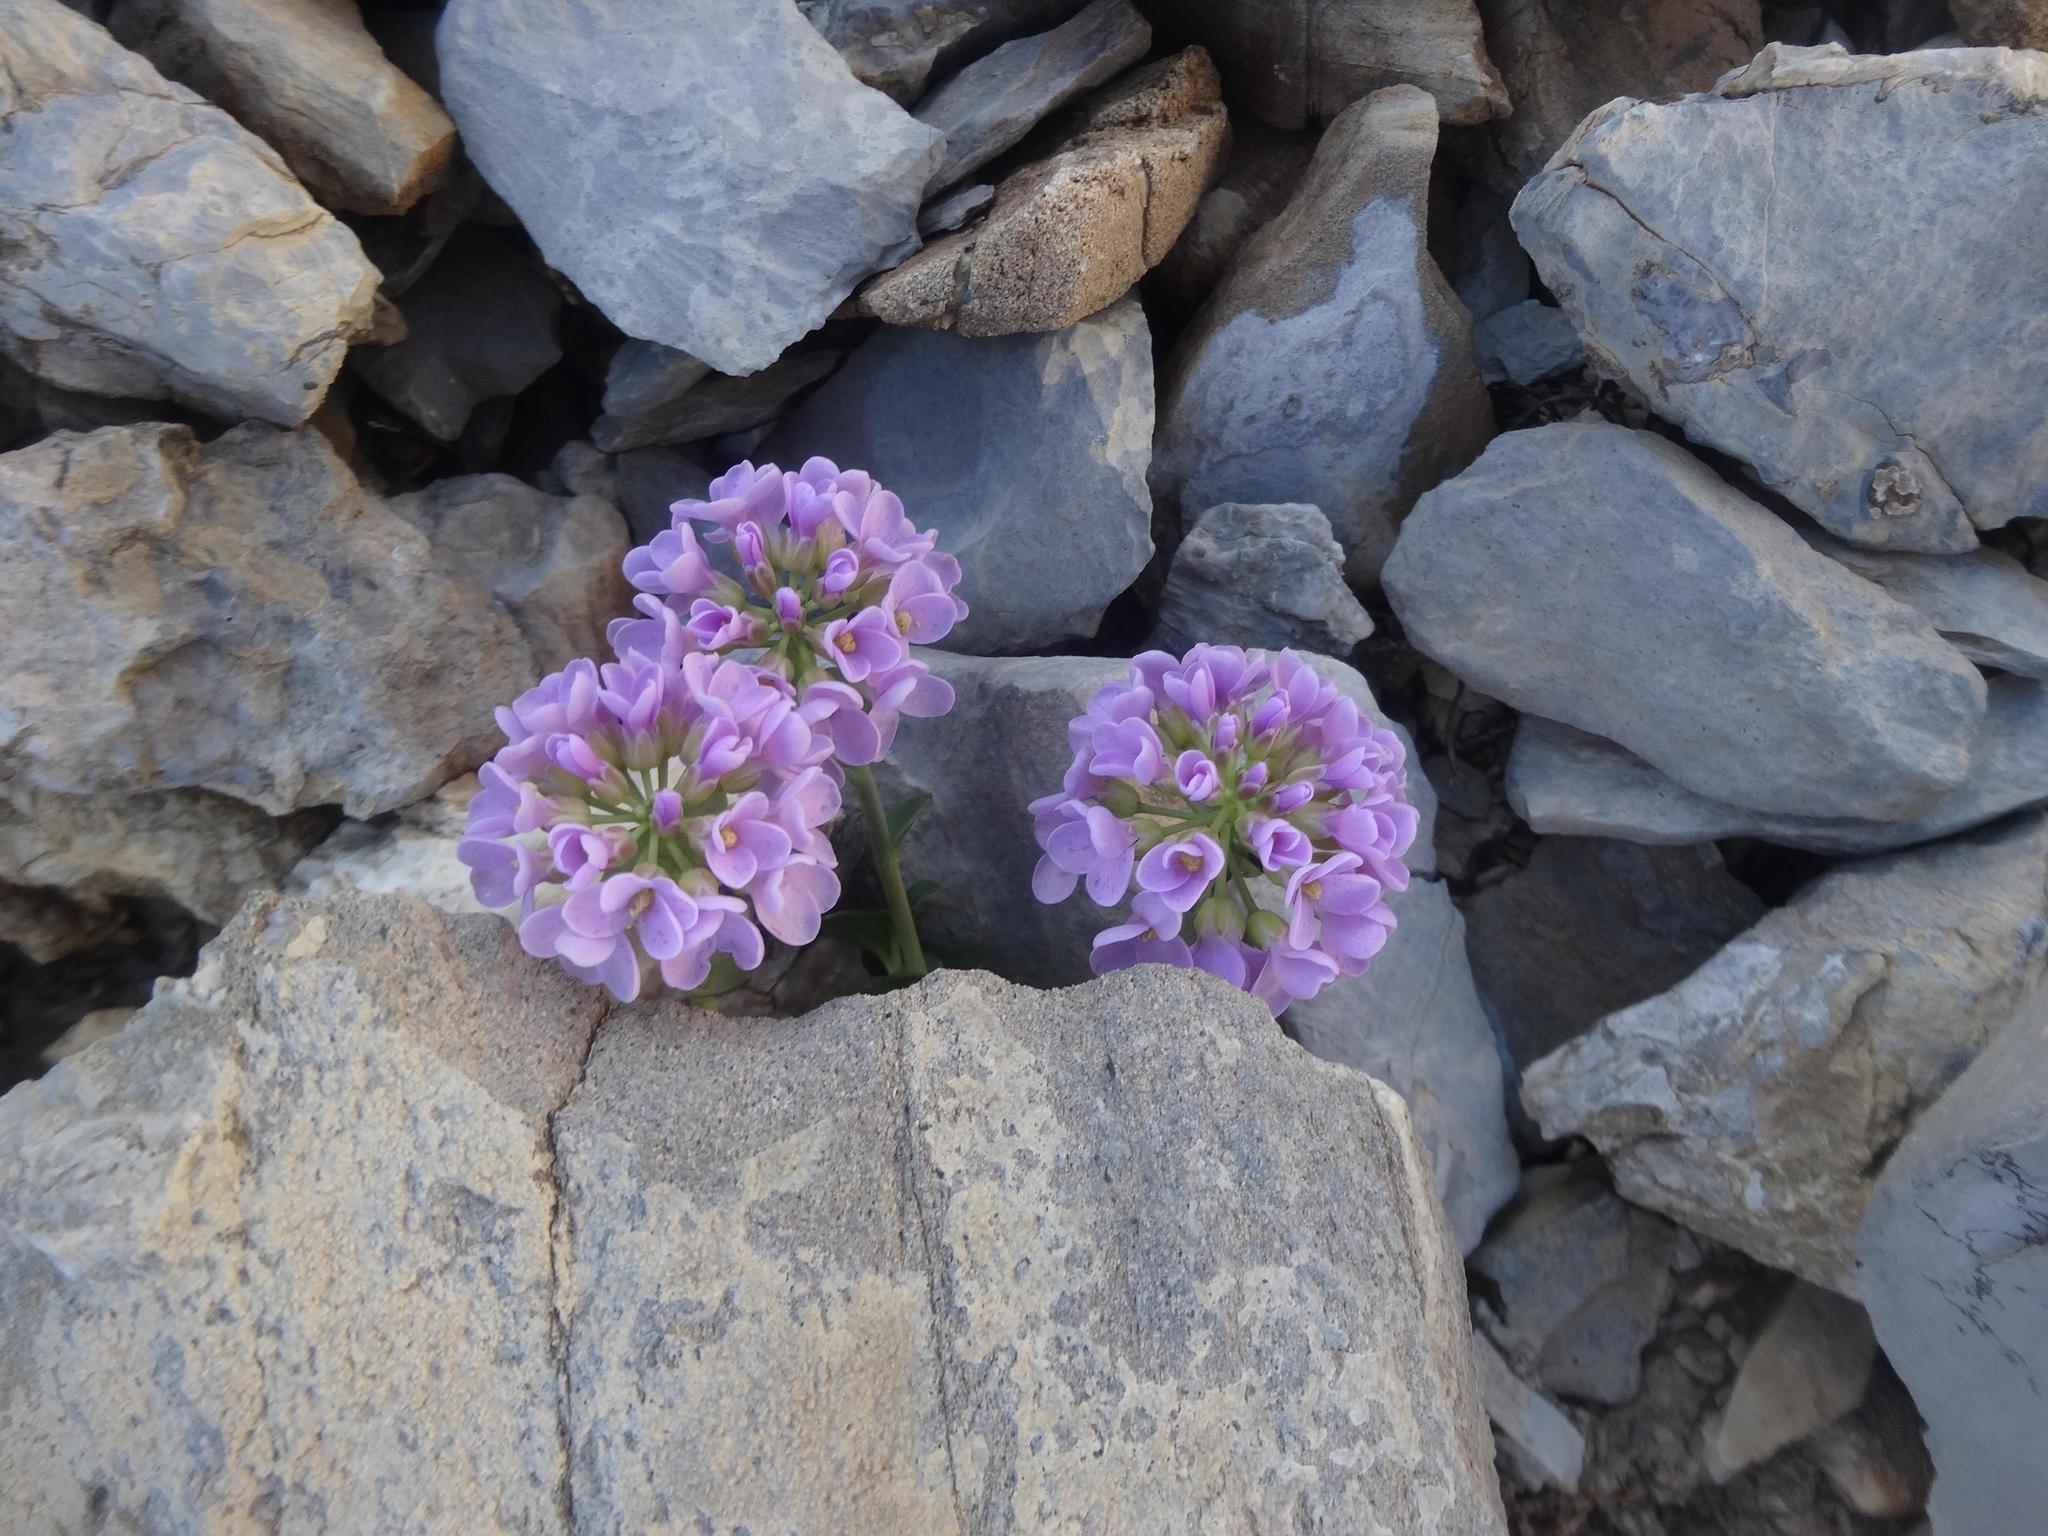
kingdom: Plantae
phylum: Tracheophyta
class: Magnoliopsida
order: Brassicales
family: Brassicaceae
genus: Noccaea
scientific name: Noccaea rotundifolia
